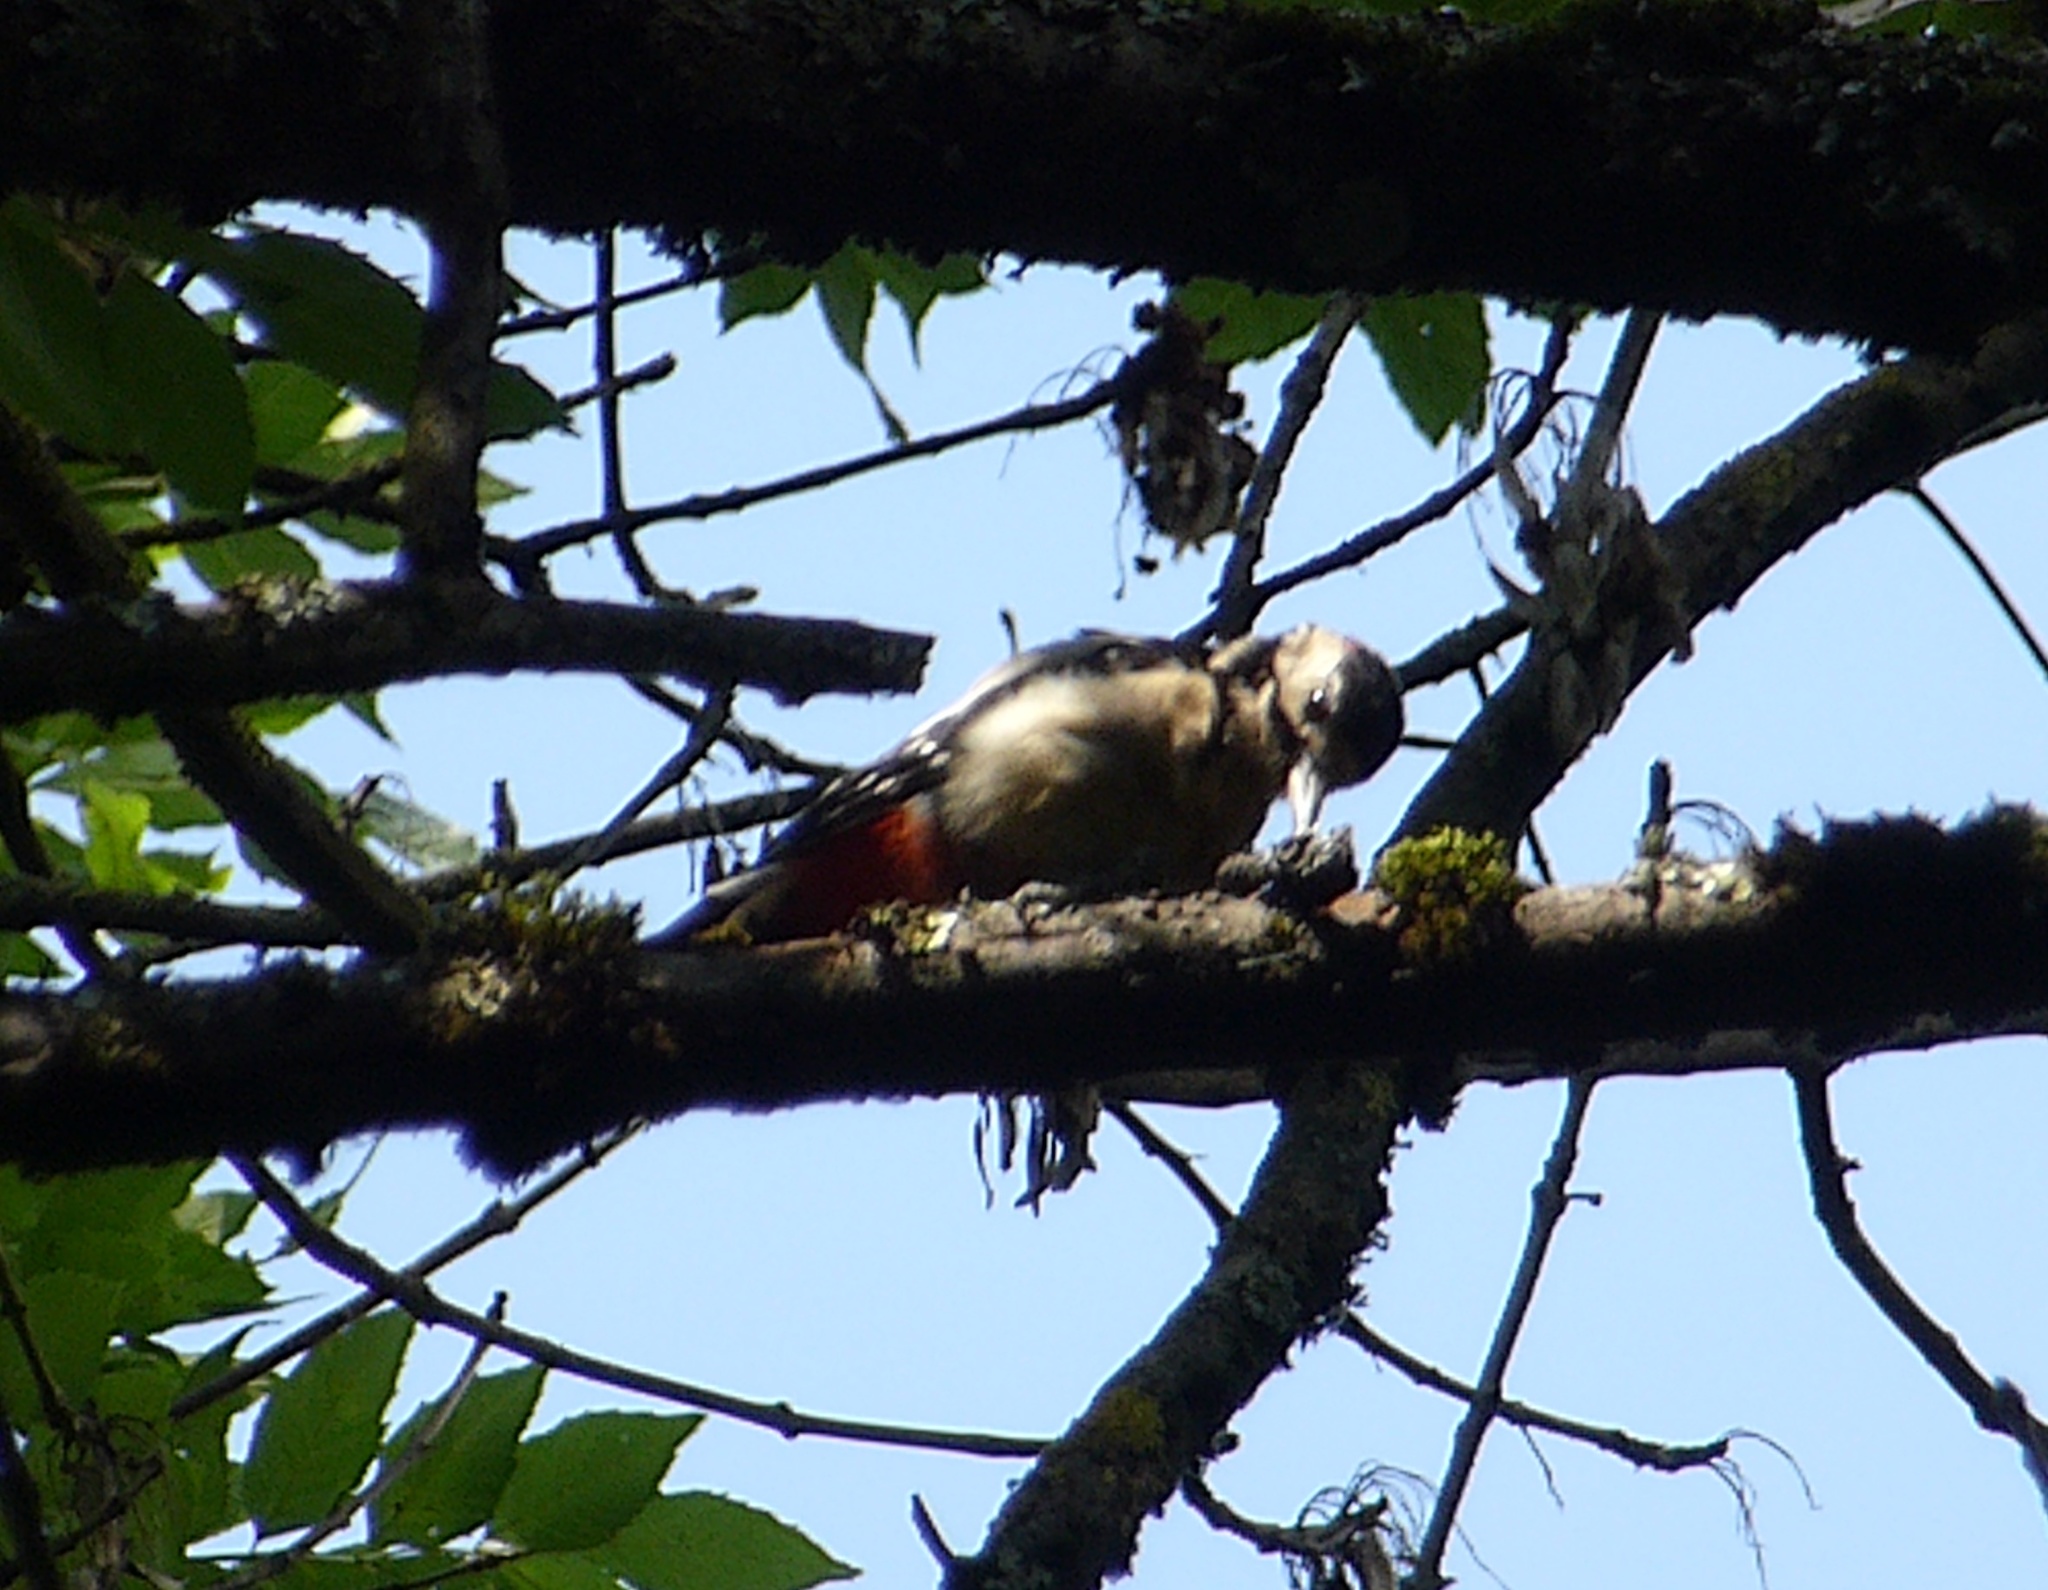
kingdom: Animalia
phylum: Chordata
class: Aves
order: Piciformes
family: Picidae
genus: Dendrocopos
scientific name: Dendrocopos major
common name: Great spotted woodpecker
